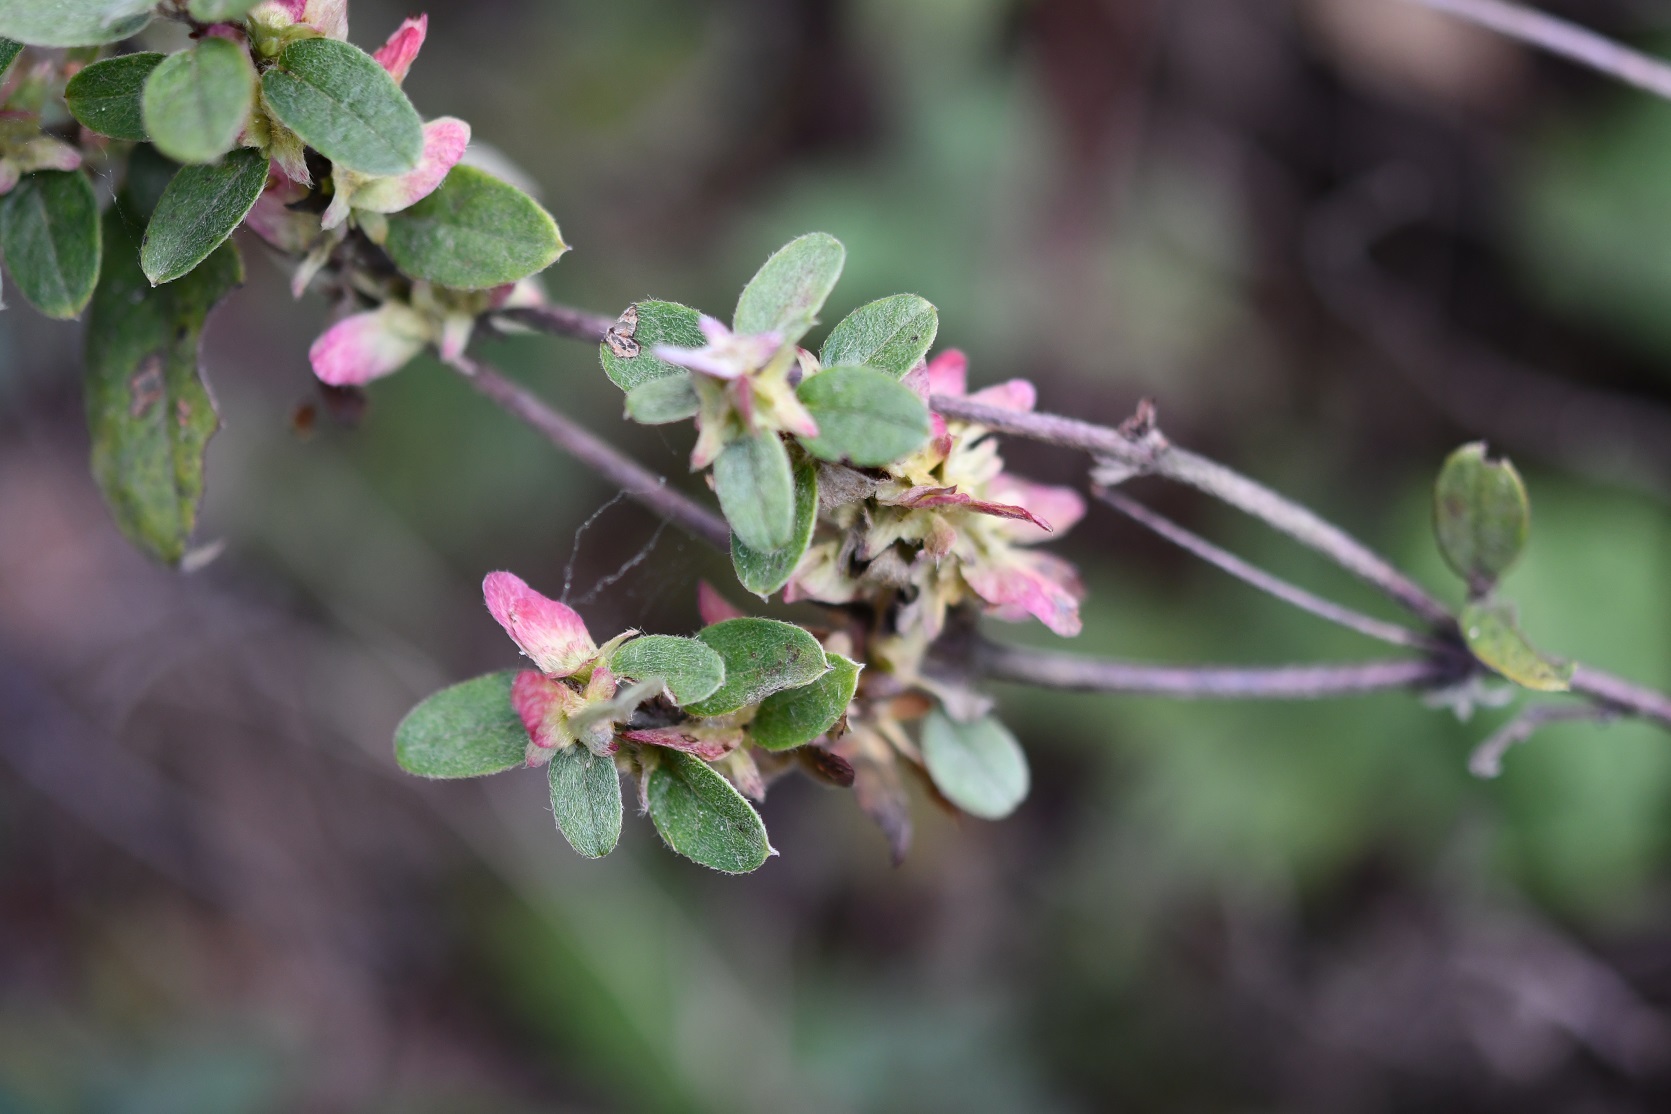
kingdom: Plantae
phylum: Tracheophyta
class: Magnoliopsida
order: Malpighiales
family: Malpighiaceae
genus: Gaudichaudia
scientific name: Gaudichaudia cynanchoides
